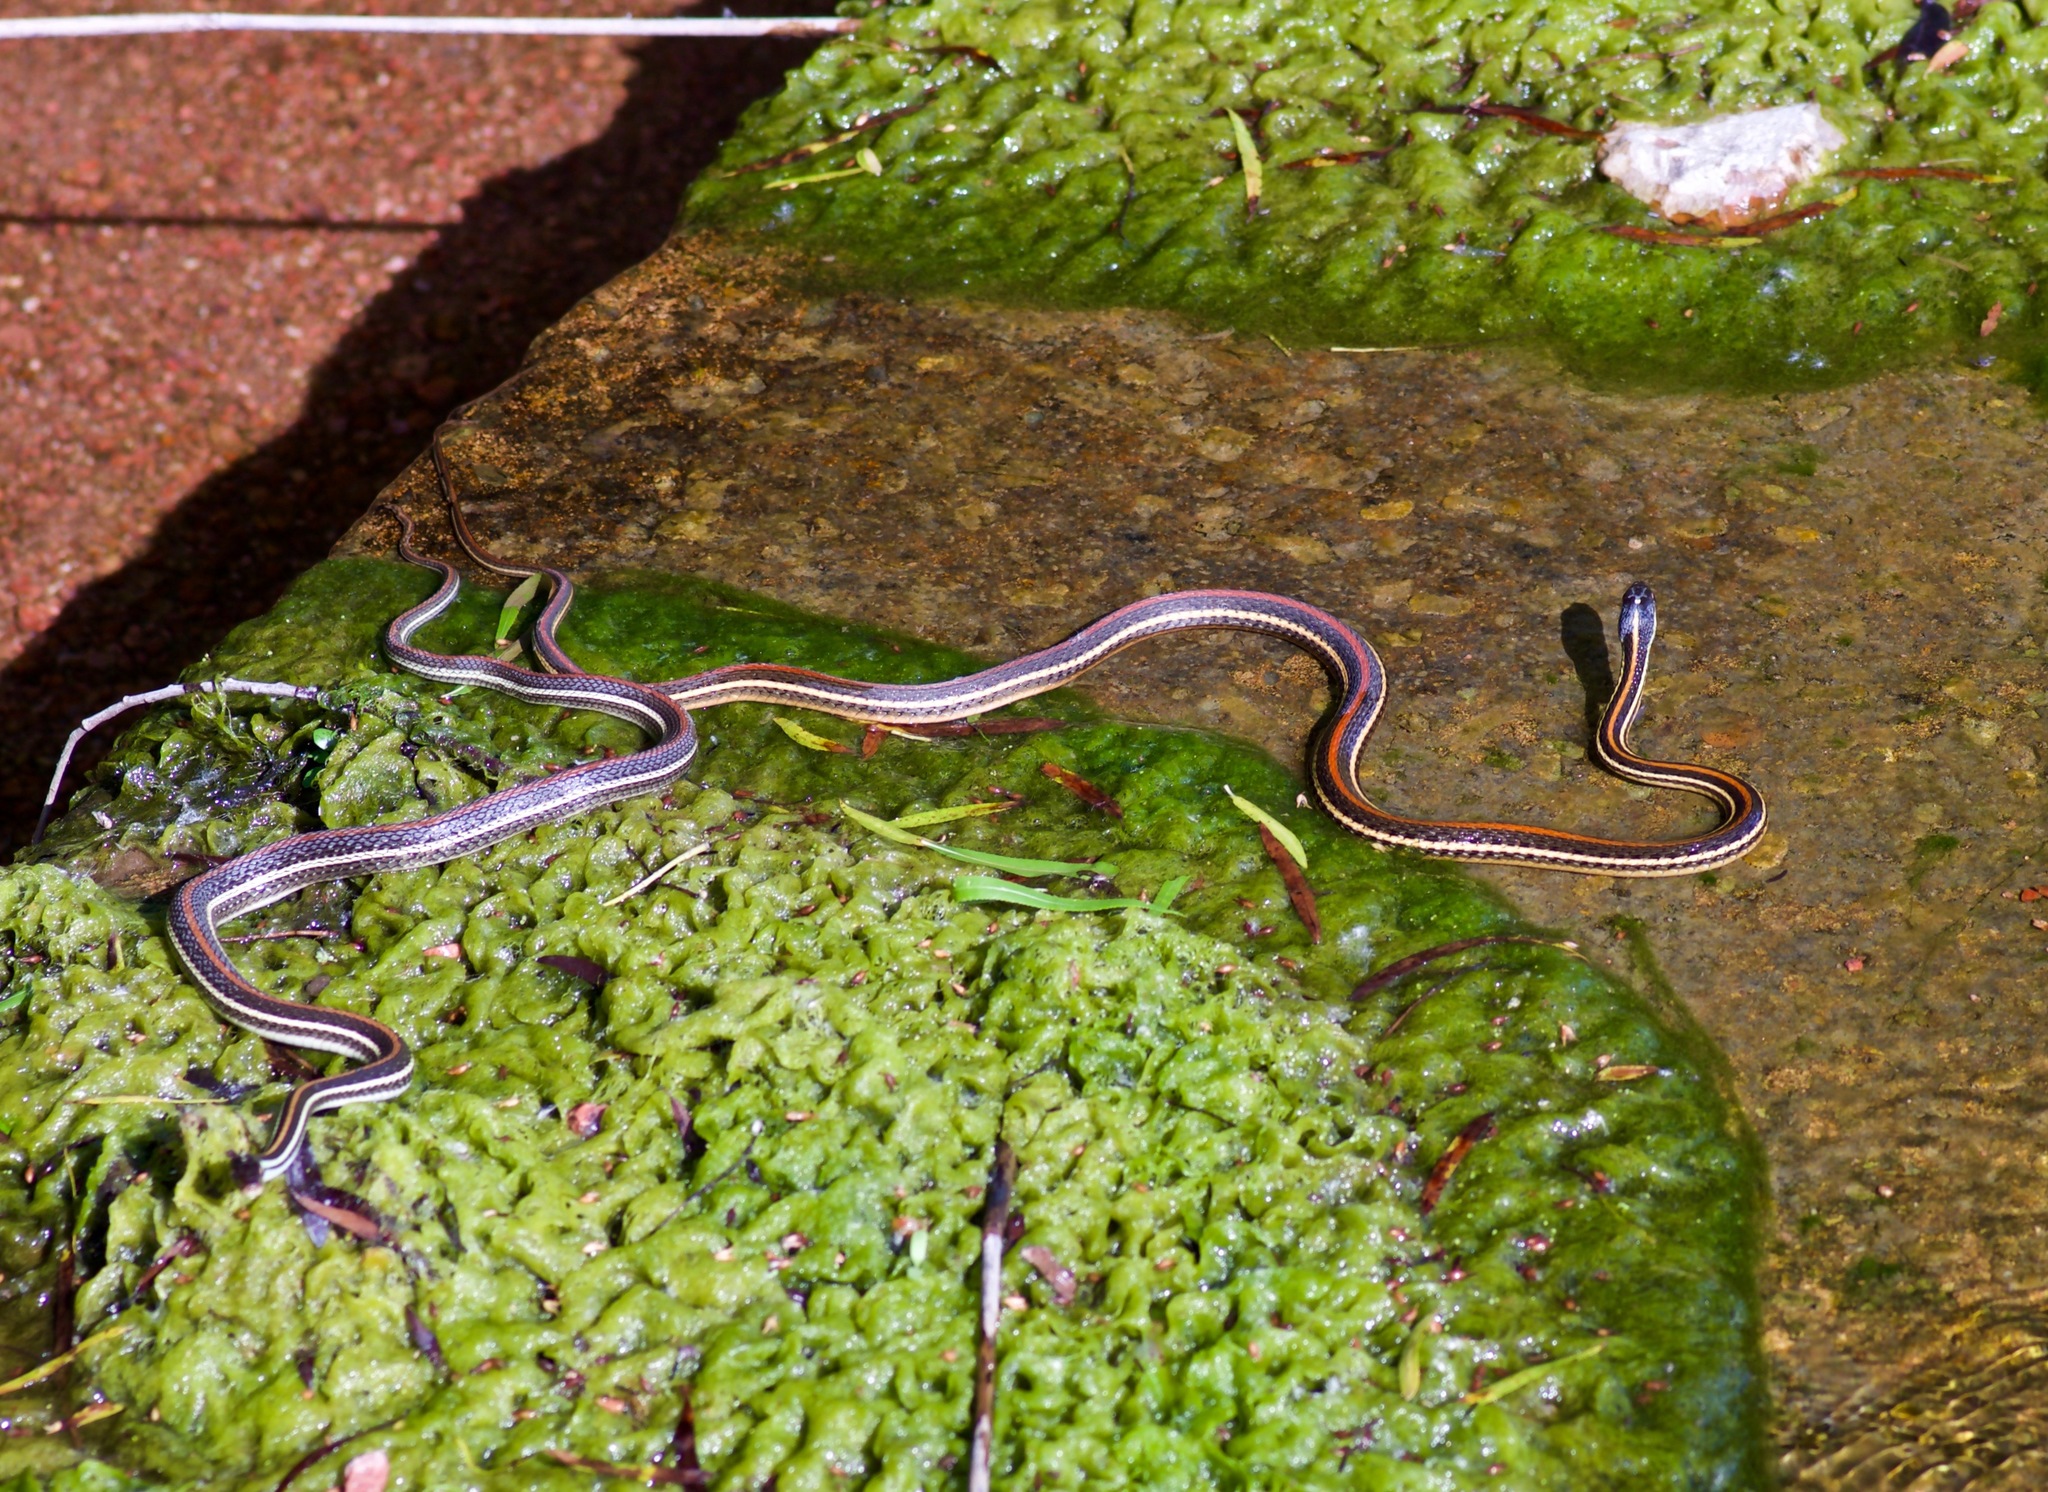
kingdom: Animalia
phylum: Chordata
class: Squamata
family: Colubridae
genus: Thamnophis
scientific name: Thamnophis proximus
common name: Western ribbon snake
